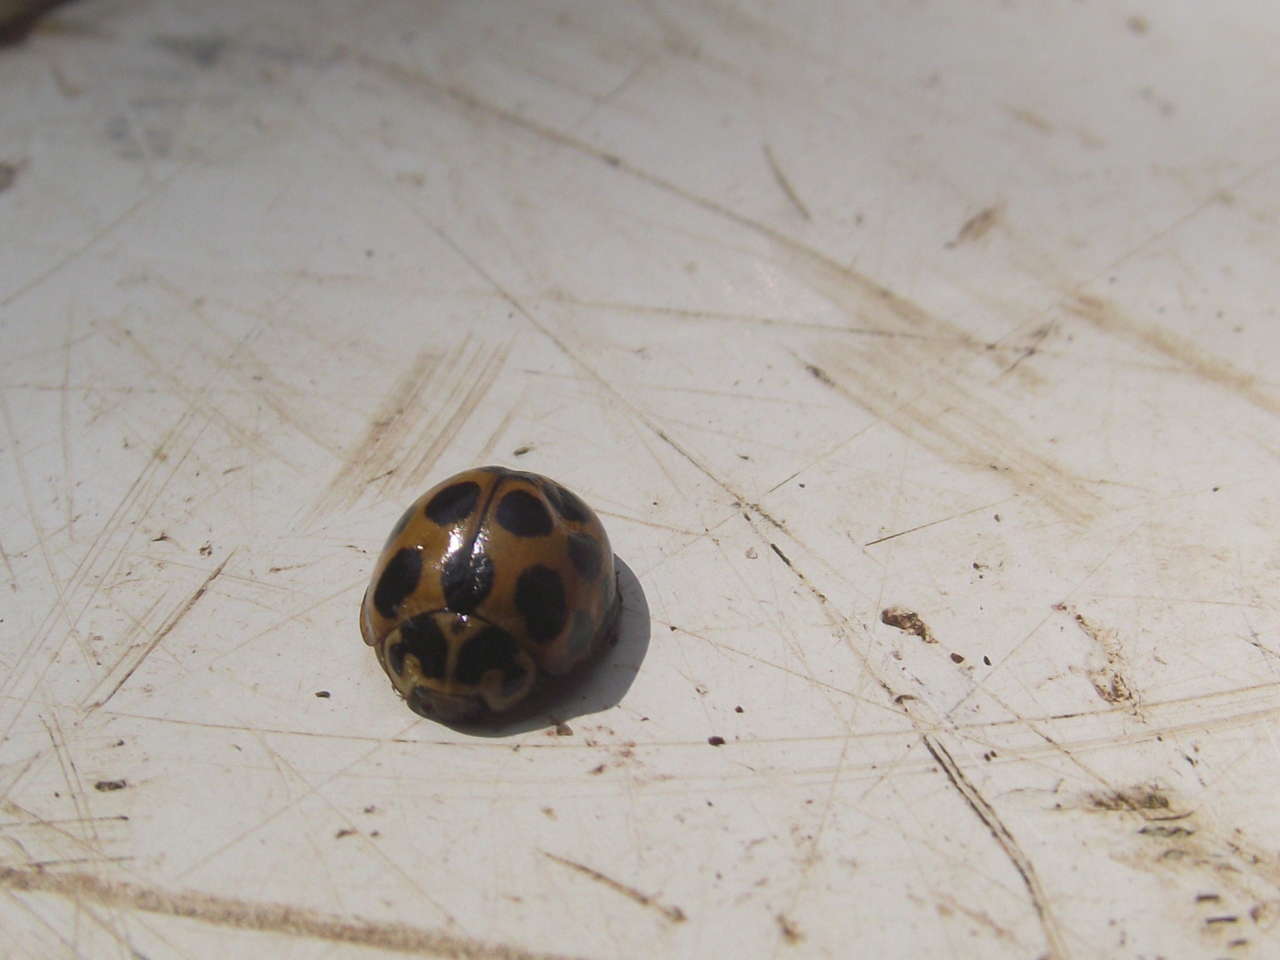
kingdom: Animalia
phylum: Arthropoda
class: Insecta
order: Coleoptera
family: Coccinellidae
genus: Harmonia
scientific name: Harmonia conformis
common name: Common spotted ladybird beetle
